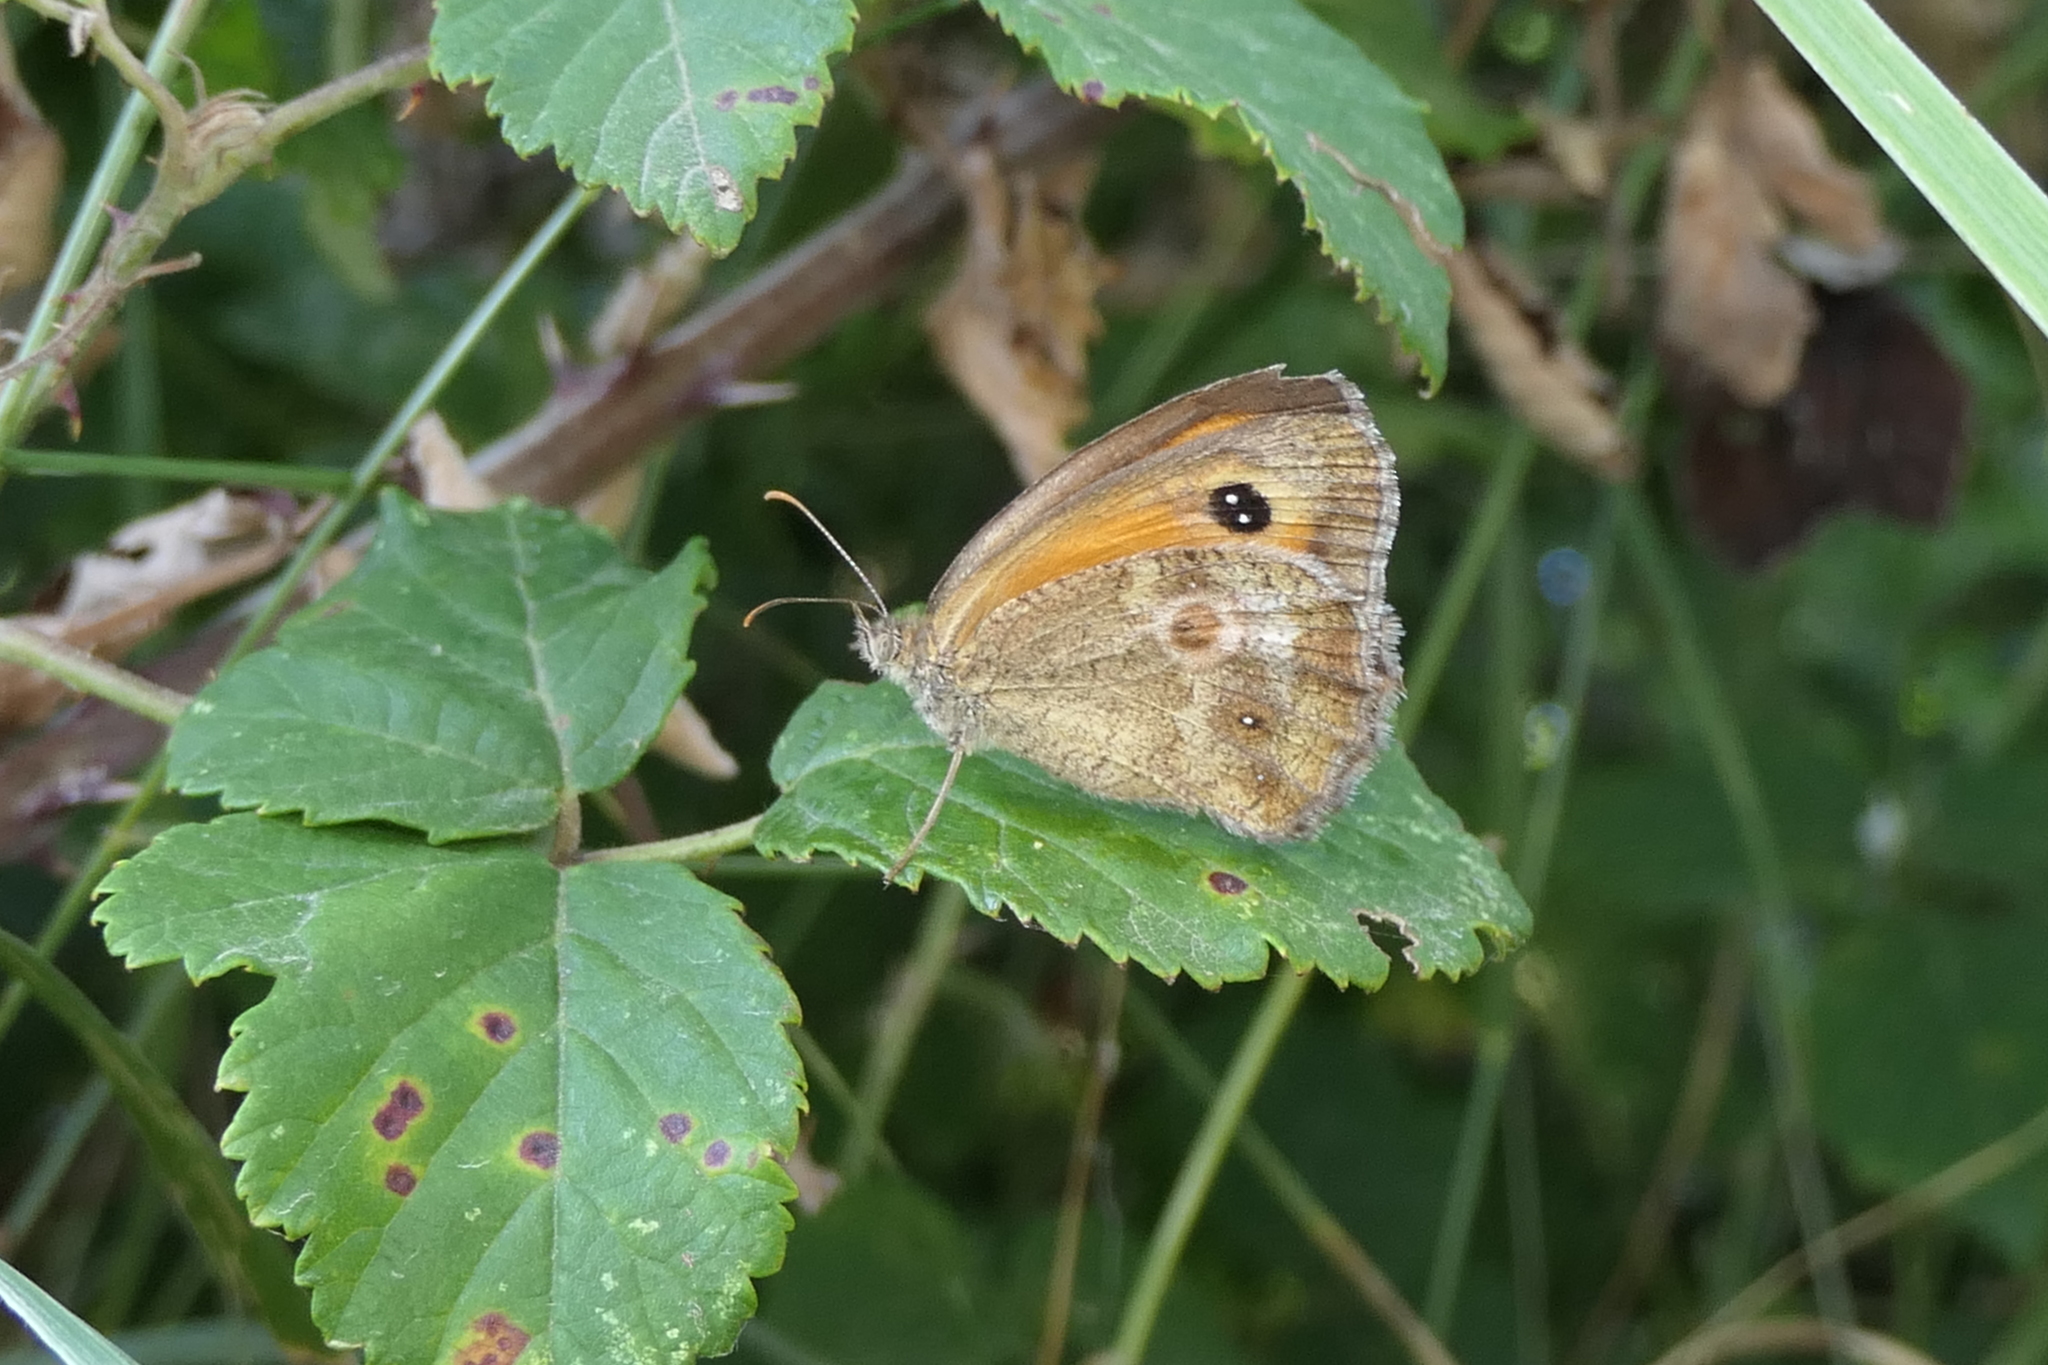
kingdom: Animalia
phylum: Arthropoda
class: Insecta
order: Lepidoptera
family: Nymphalidae
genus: Pyronia
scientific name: Pyronia tithonus
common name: Gatekeeper
